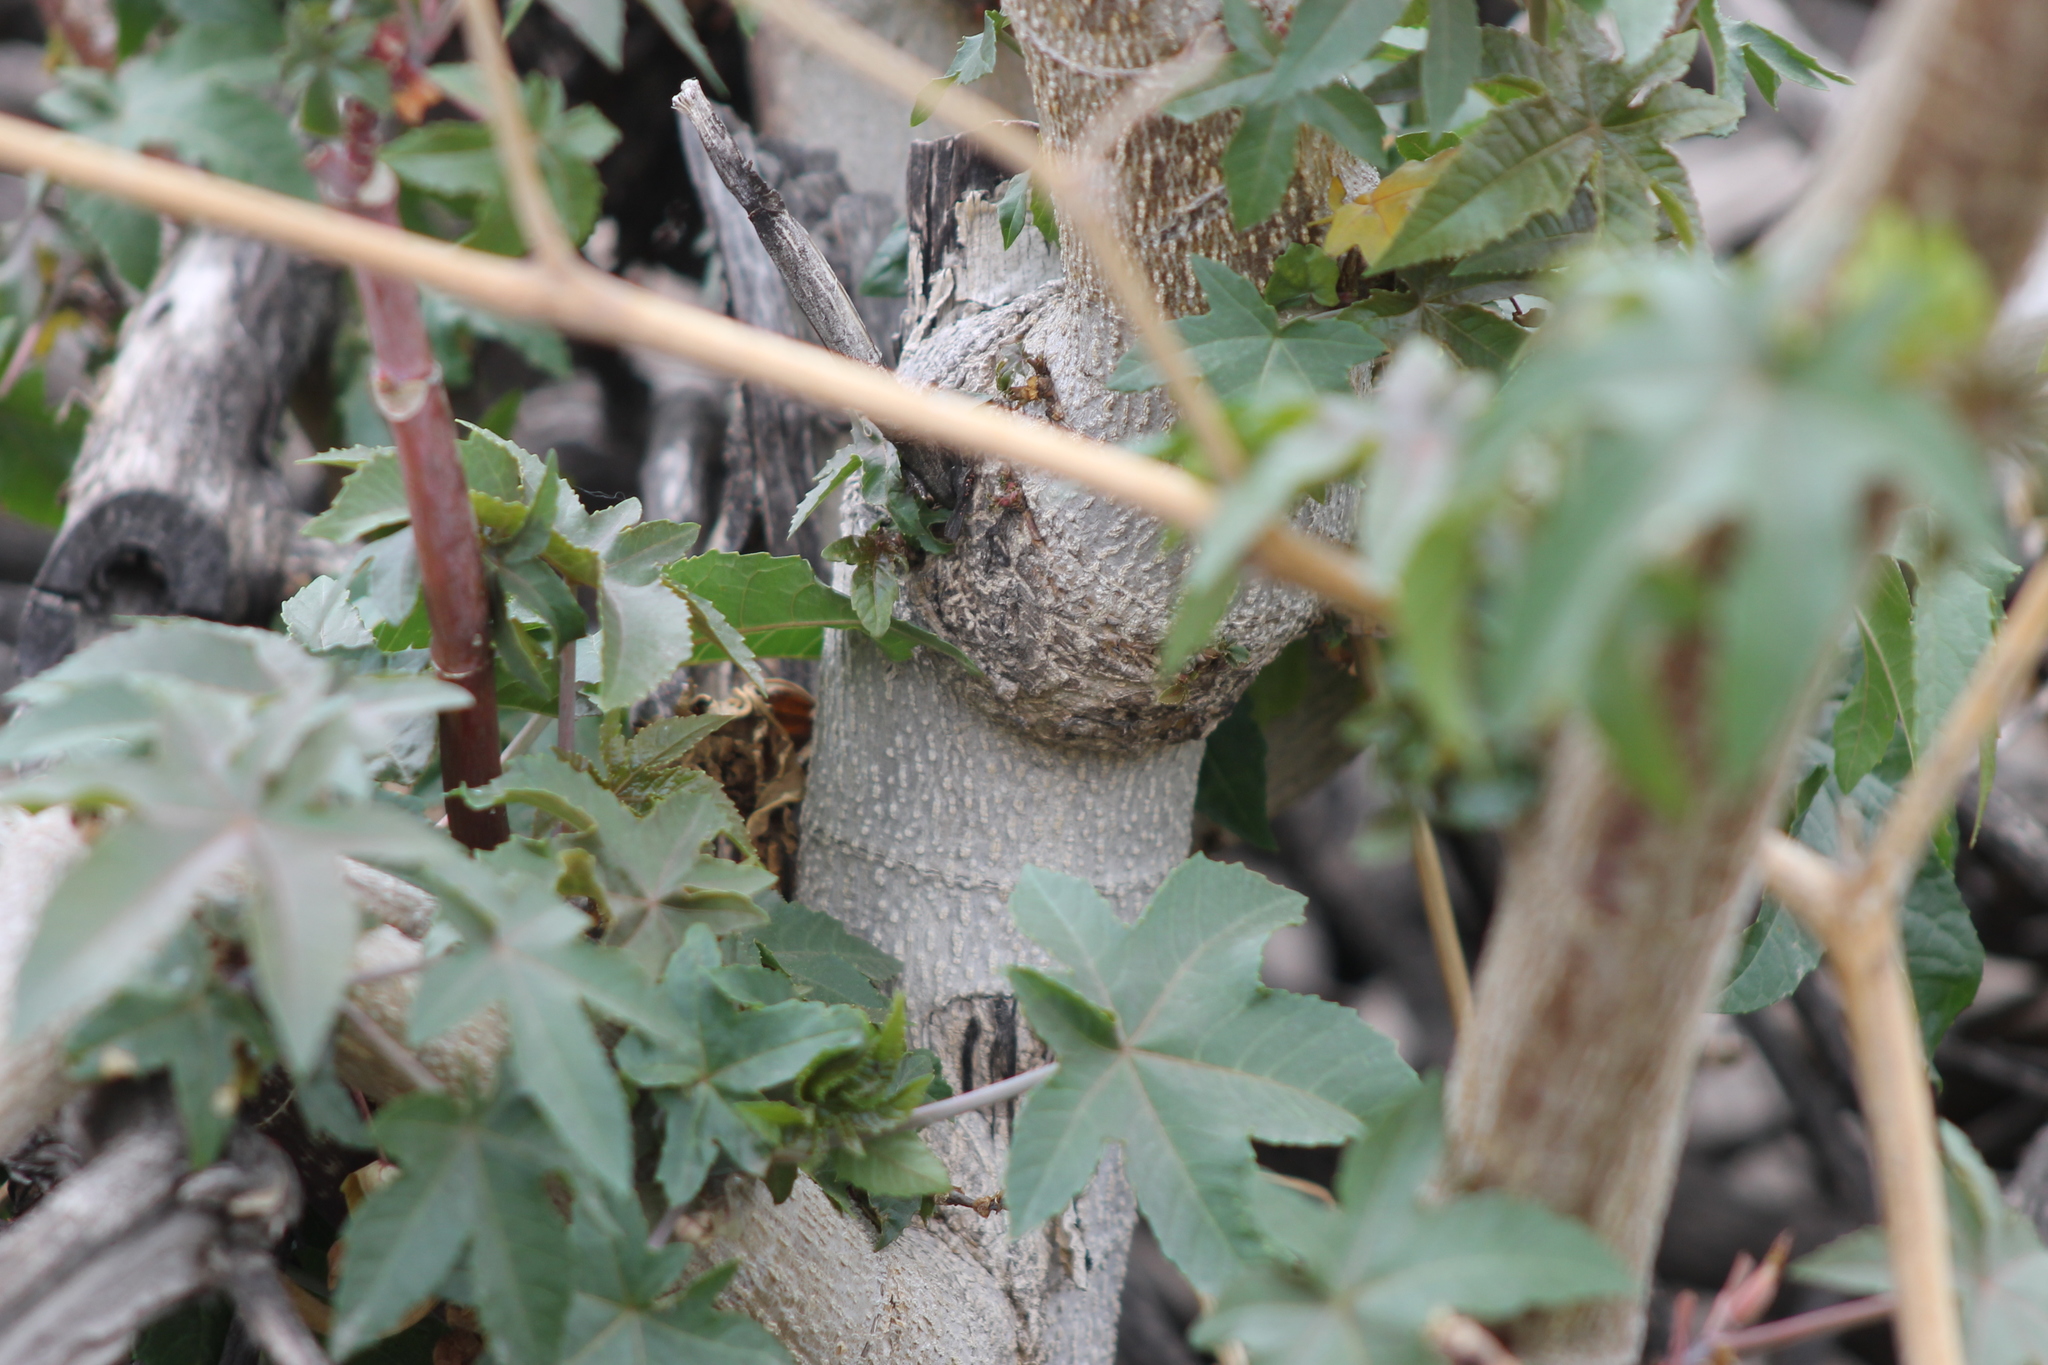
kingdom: Plantae
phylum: Tracheophyta
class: Magnoliopsida
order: Malpighiales
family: Euphorbiaceae
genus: Ricinus
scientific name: Ricinus communis
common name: Castor-oil-plant
